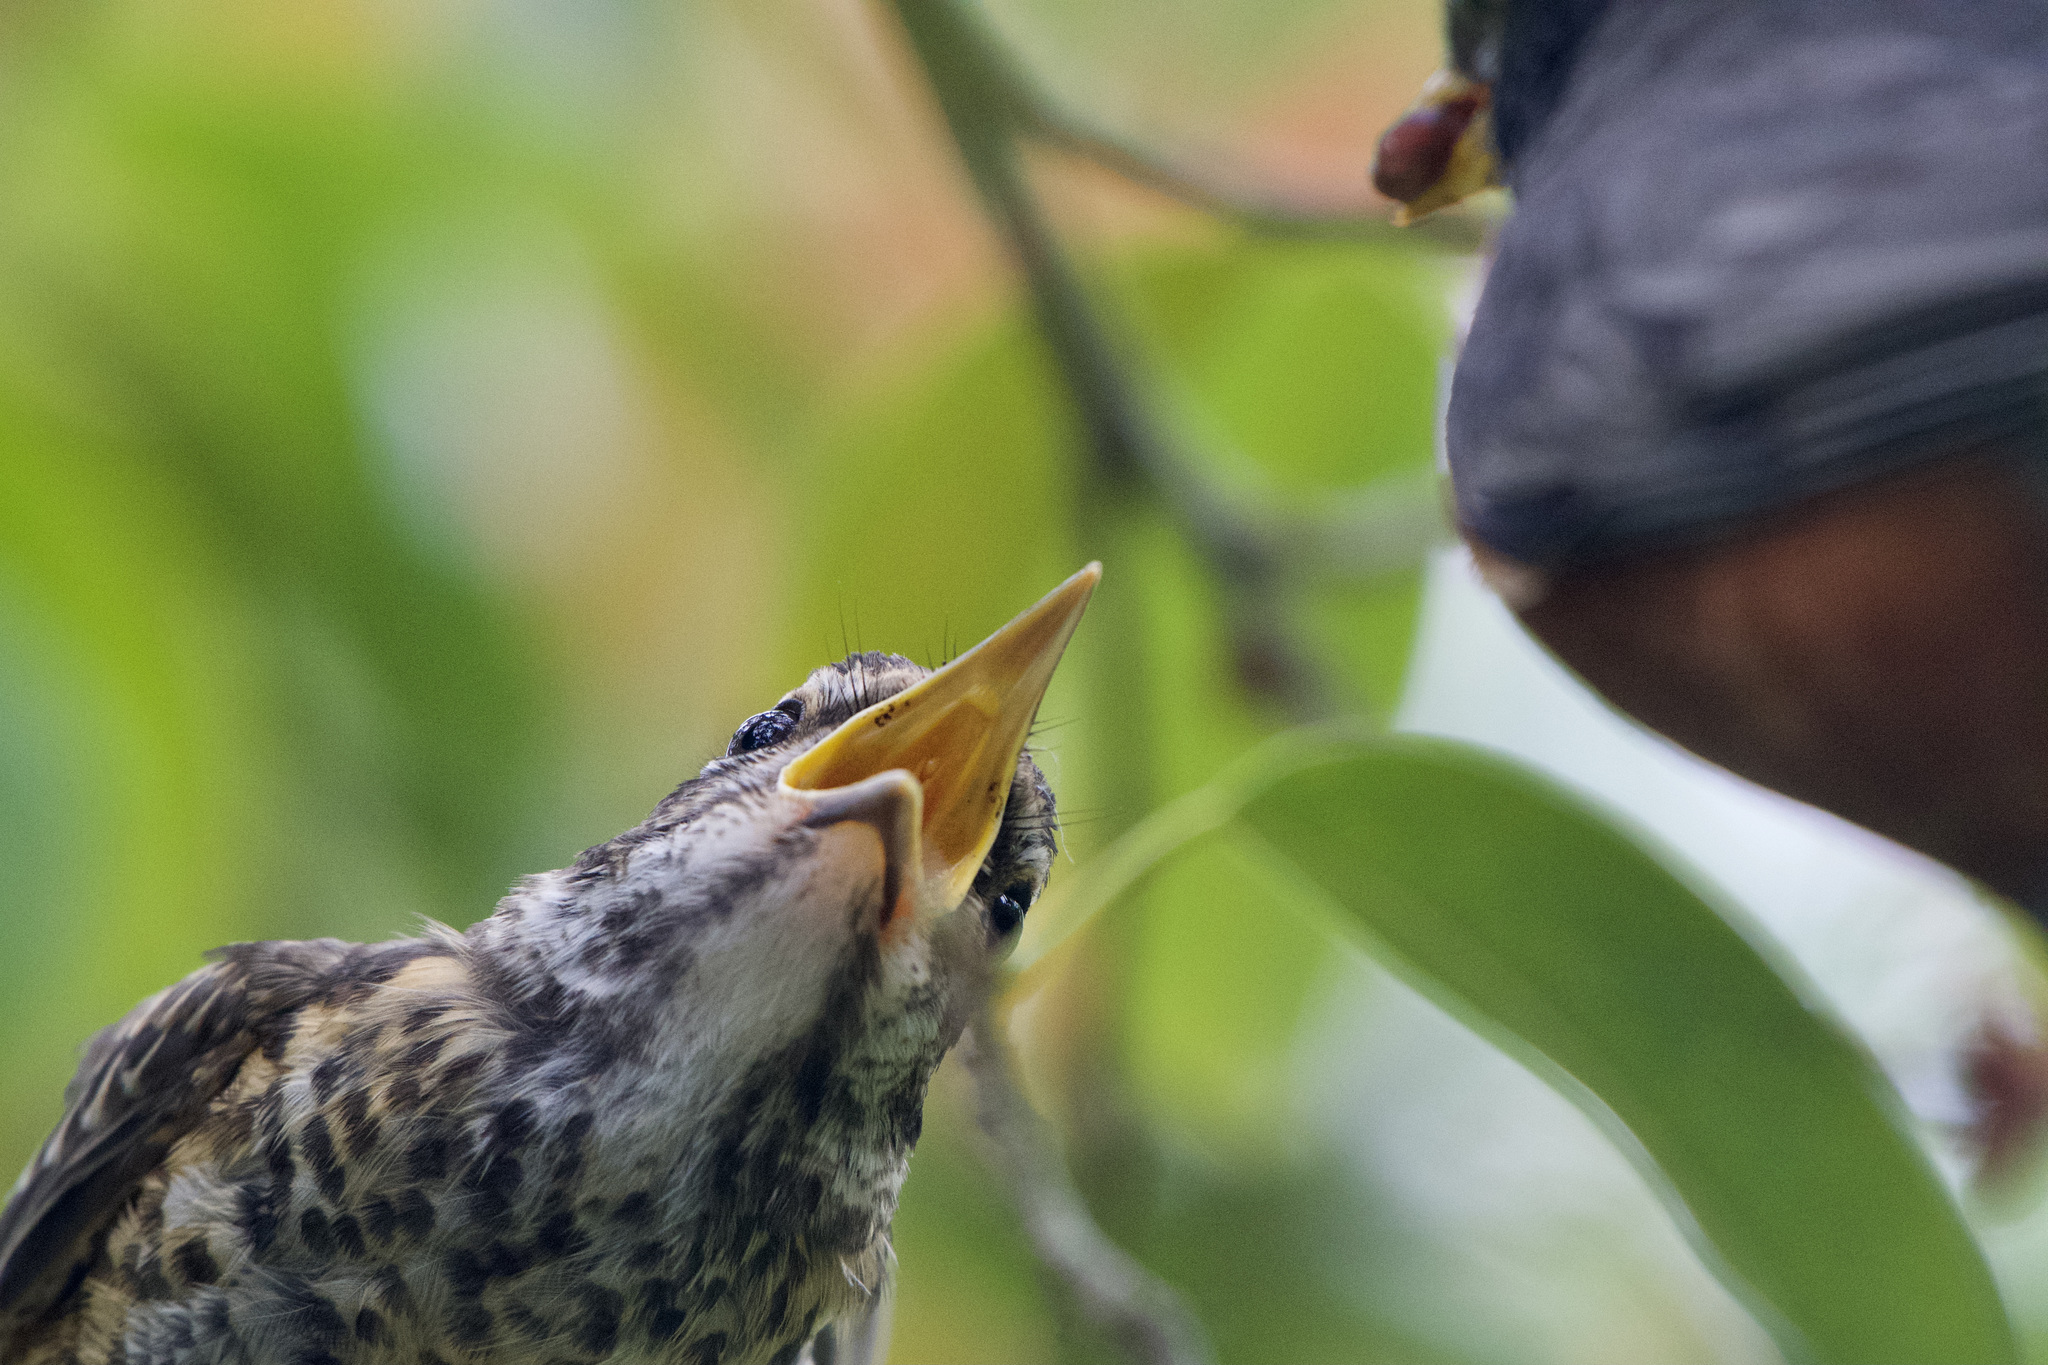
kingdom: Animalia
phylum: Chordata
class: Aves
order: Passeriformes
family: Turdidae
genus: Turdus
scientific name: Turdus migratorius
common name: American robin
